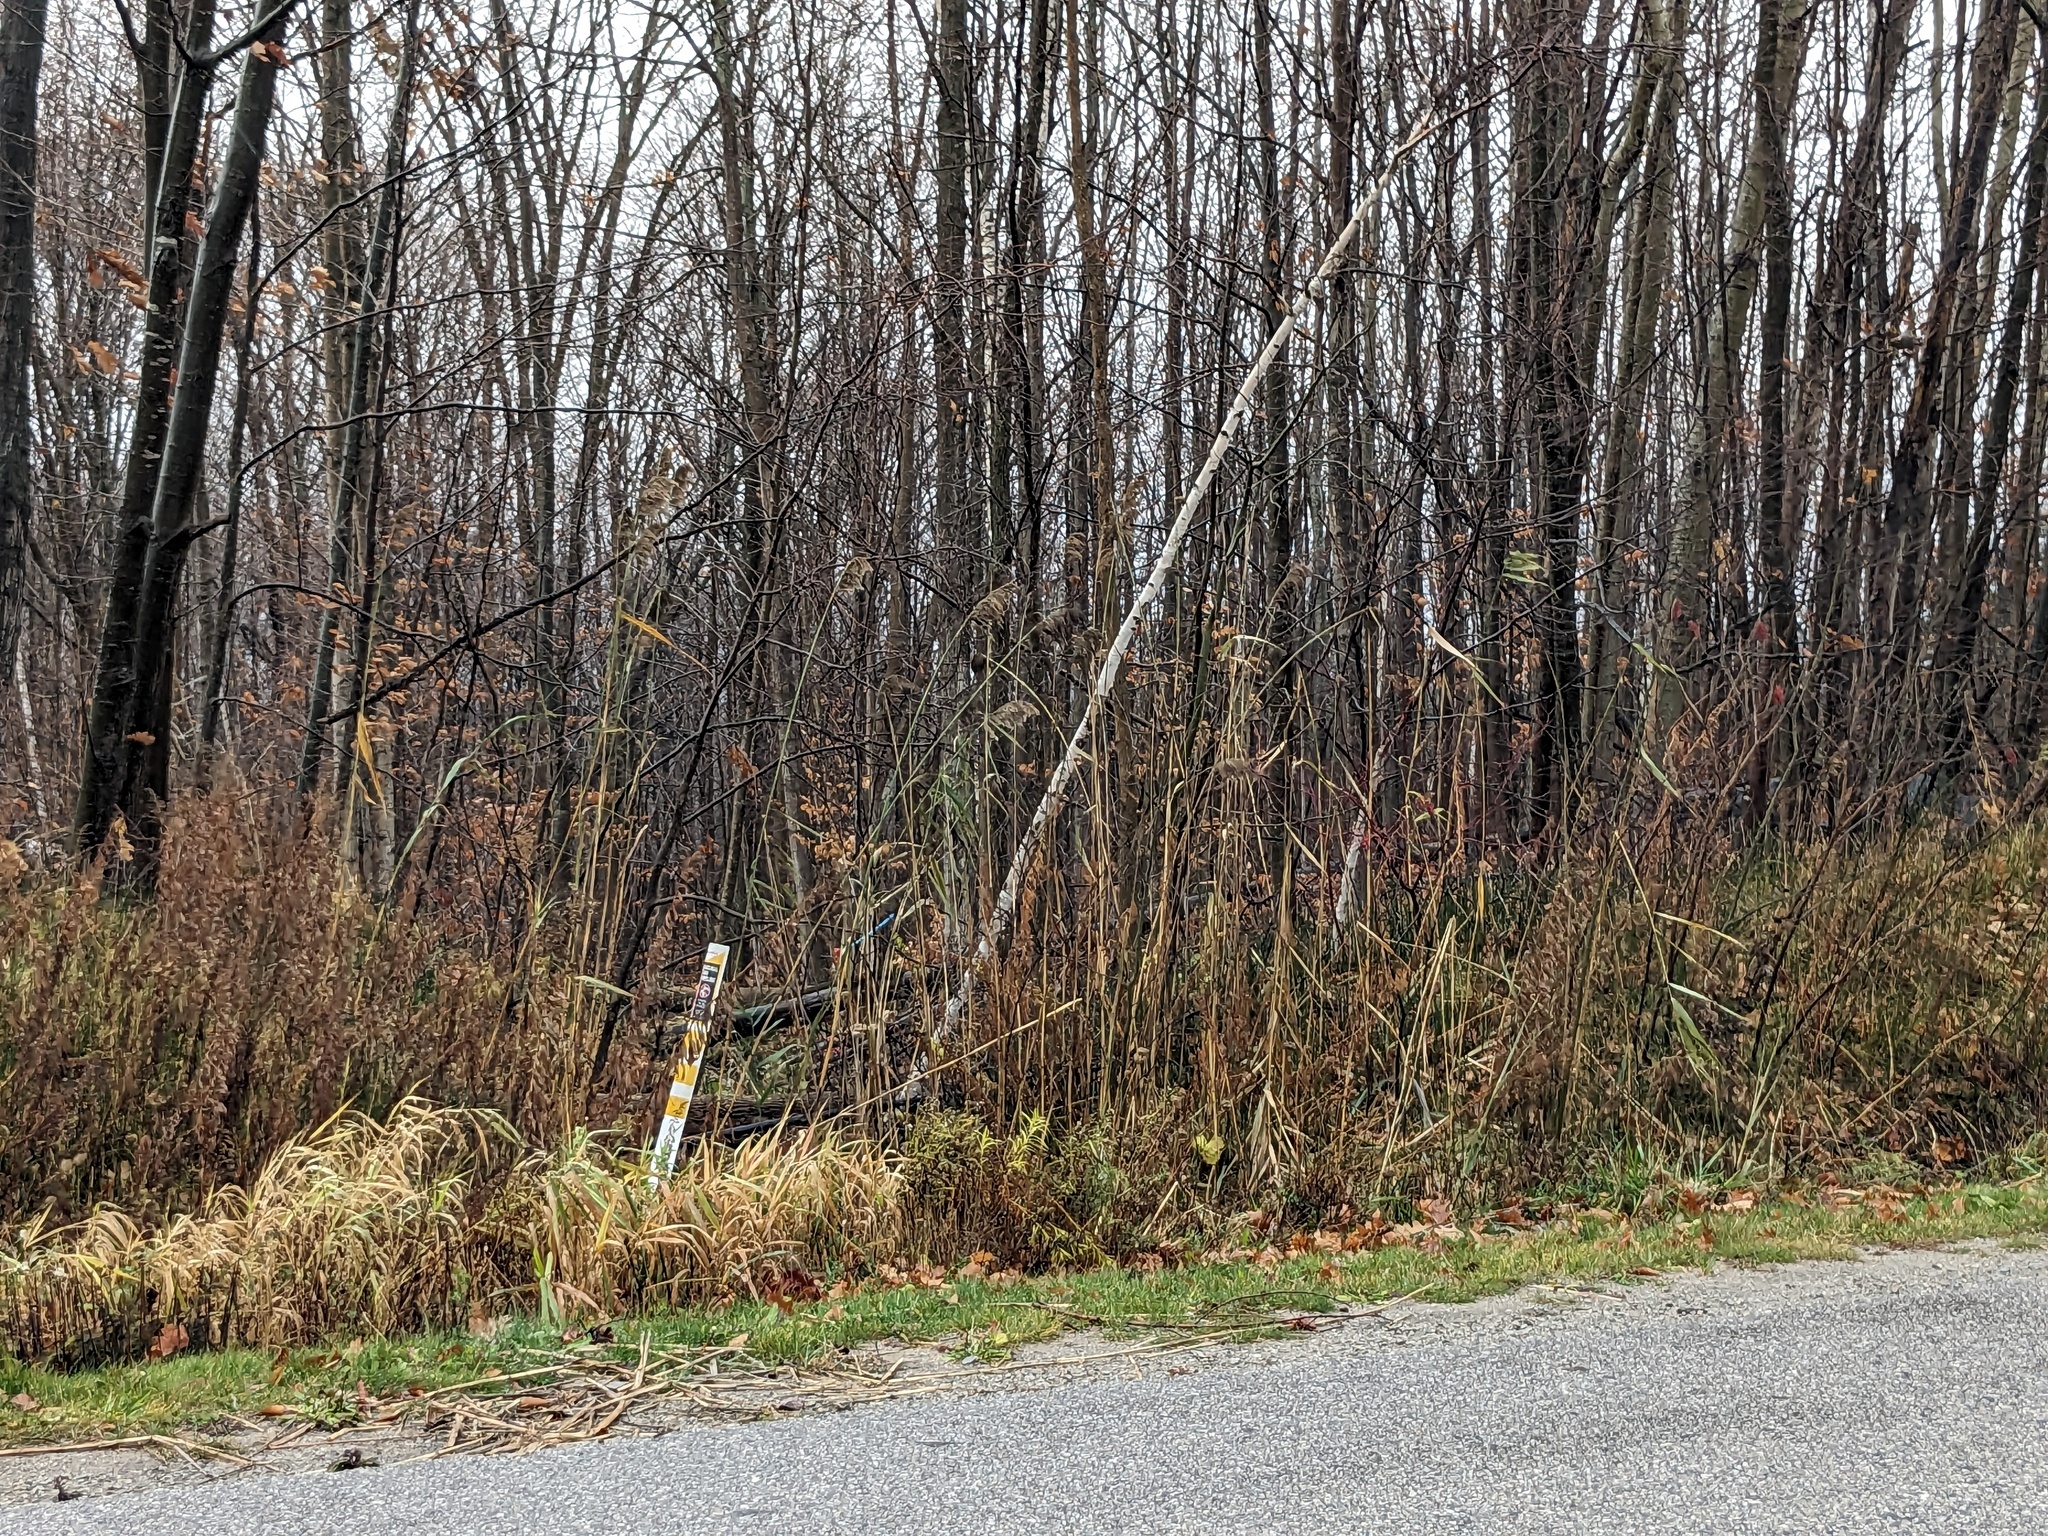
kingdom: Plantae
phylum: Tracheophyta
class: Liliopsida
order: Poales
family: Poaceae
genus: Phragmites
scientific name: Phragmites australis
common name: Common reed
